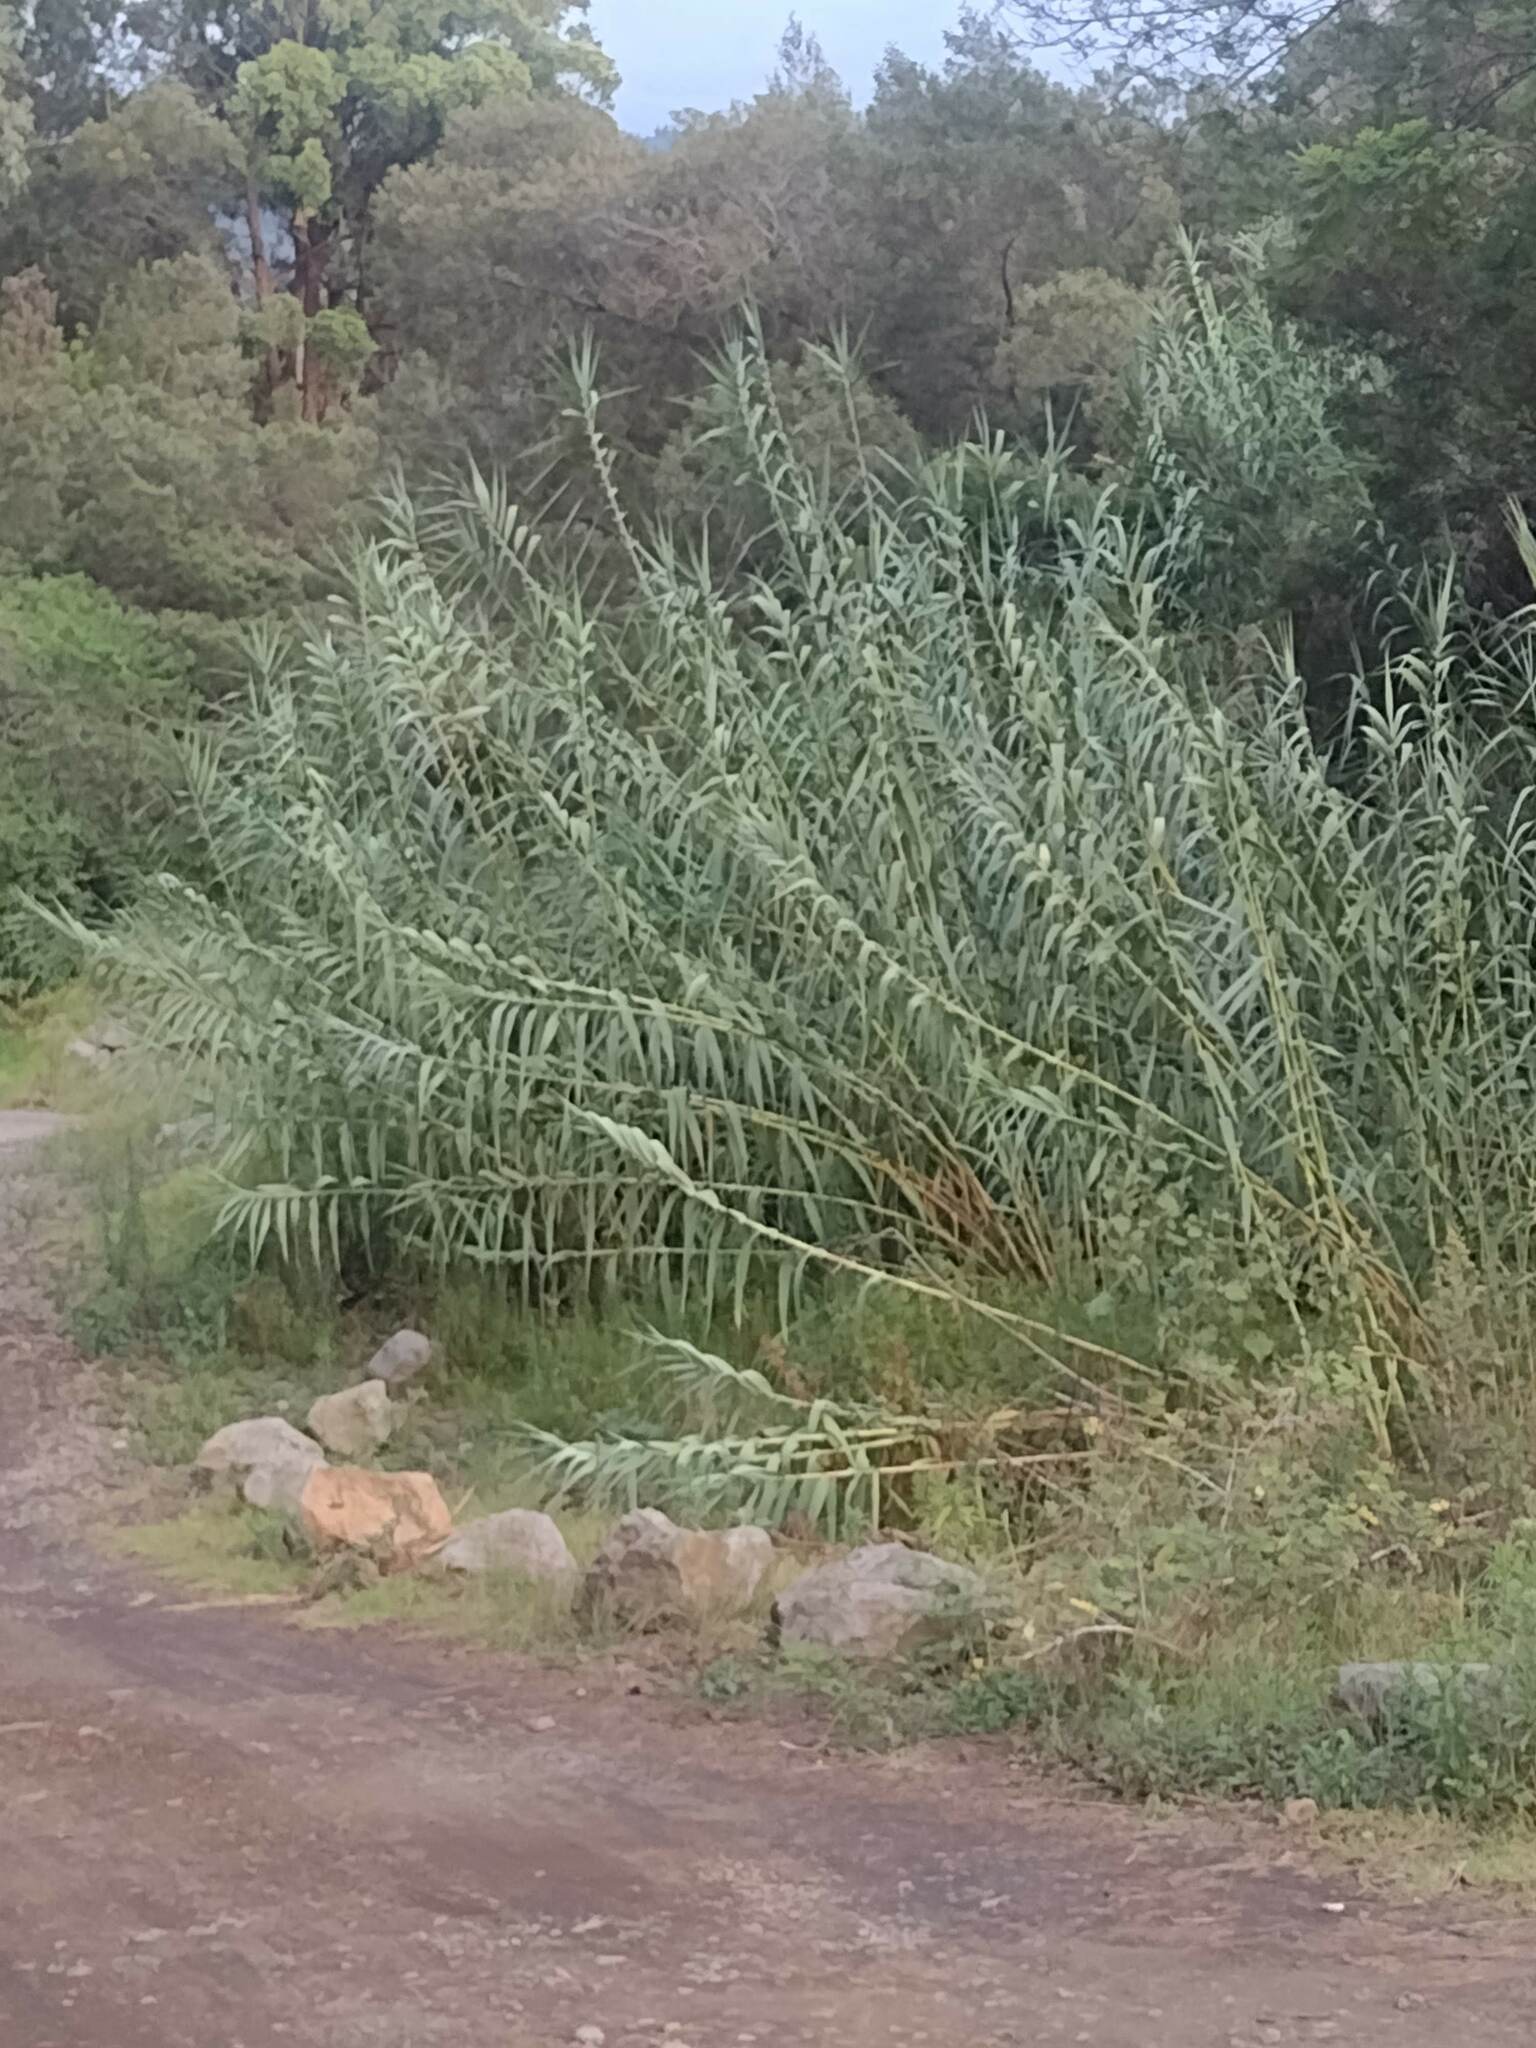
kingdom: Plantae
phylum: Tracheophyta
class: Liliopsida
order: Poales
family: Poaceae
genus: Arundo
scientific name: Arundo donax
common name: Giant reed
